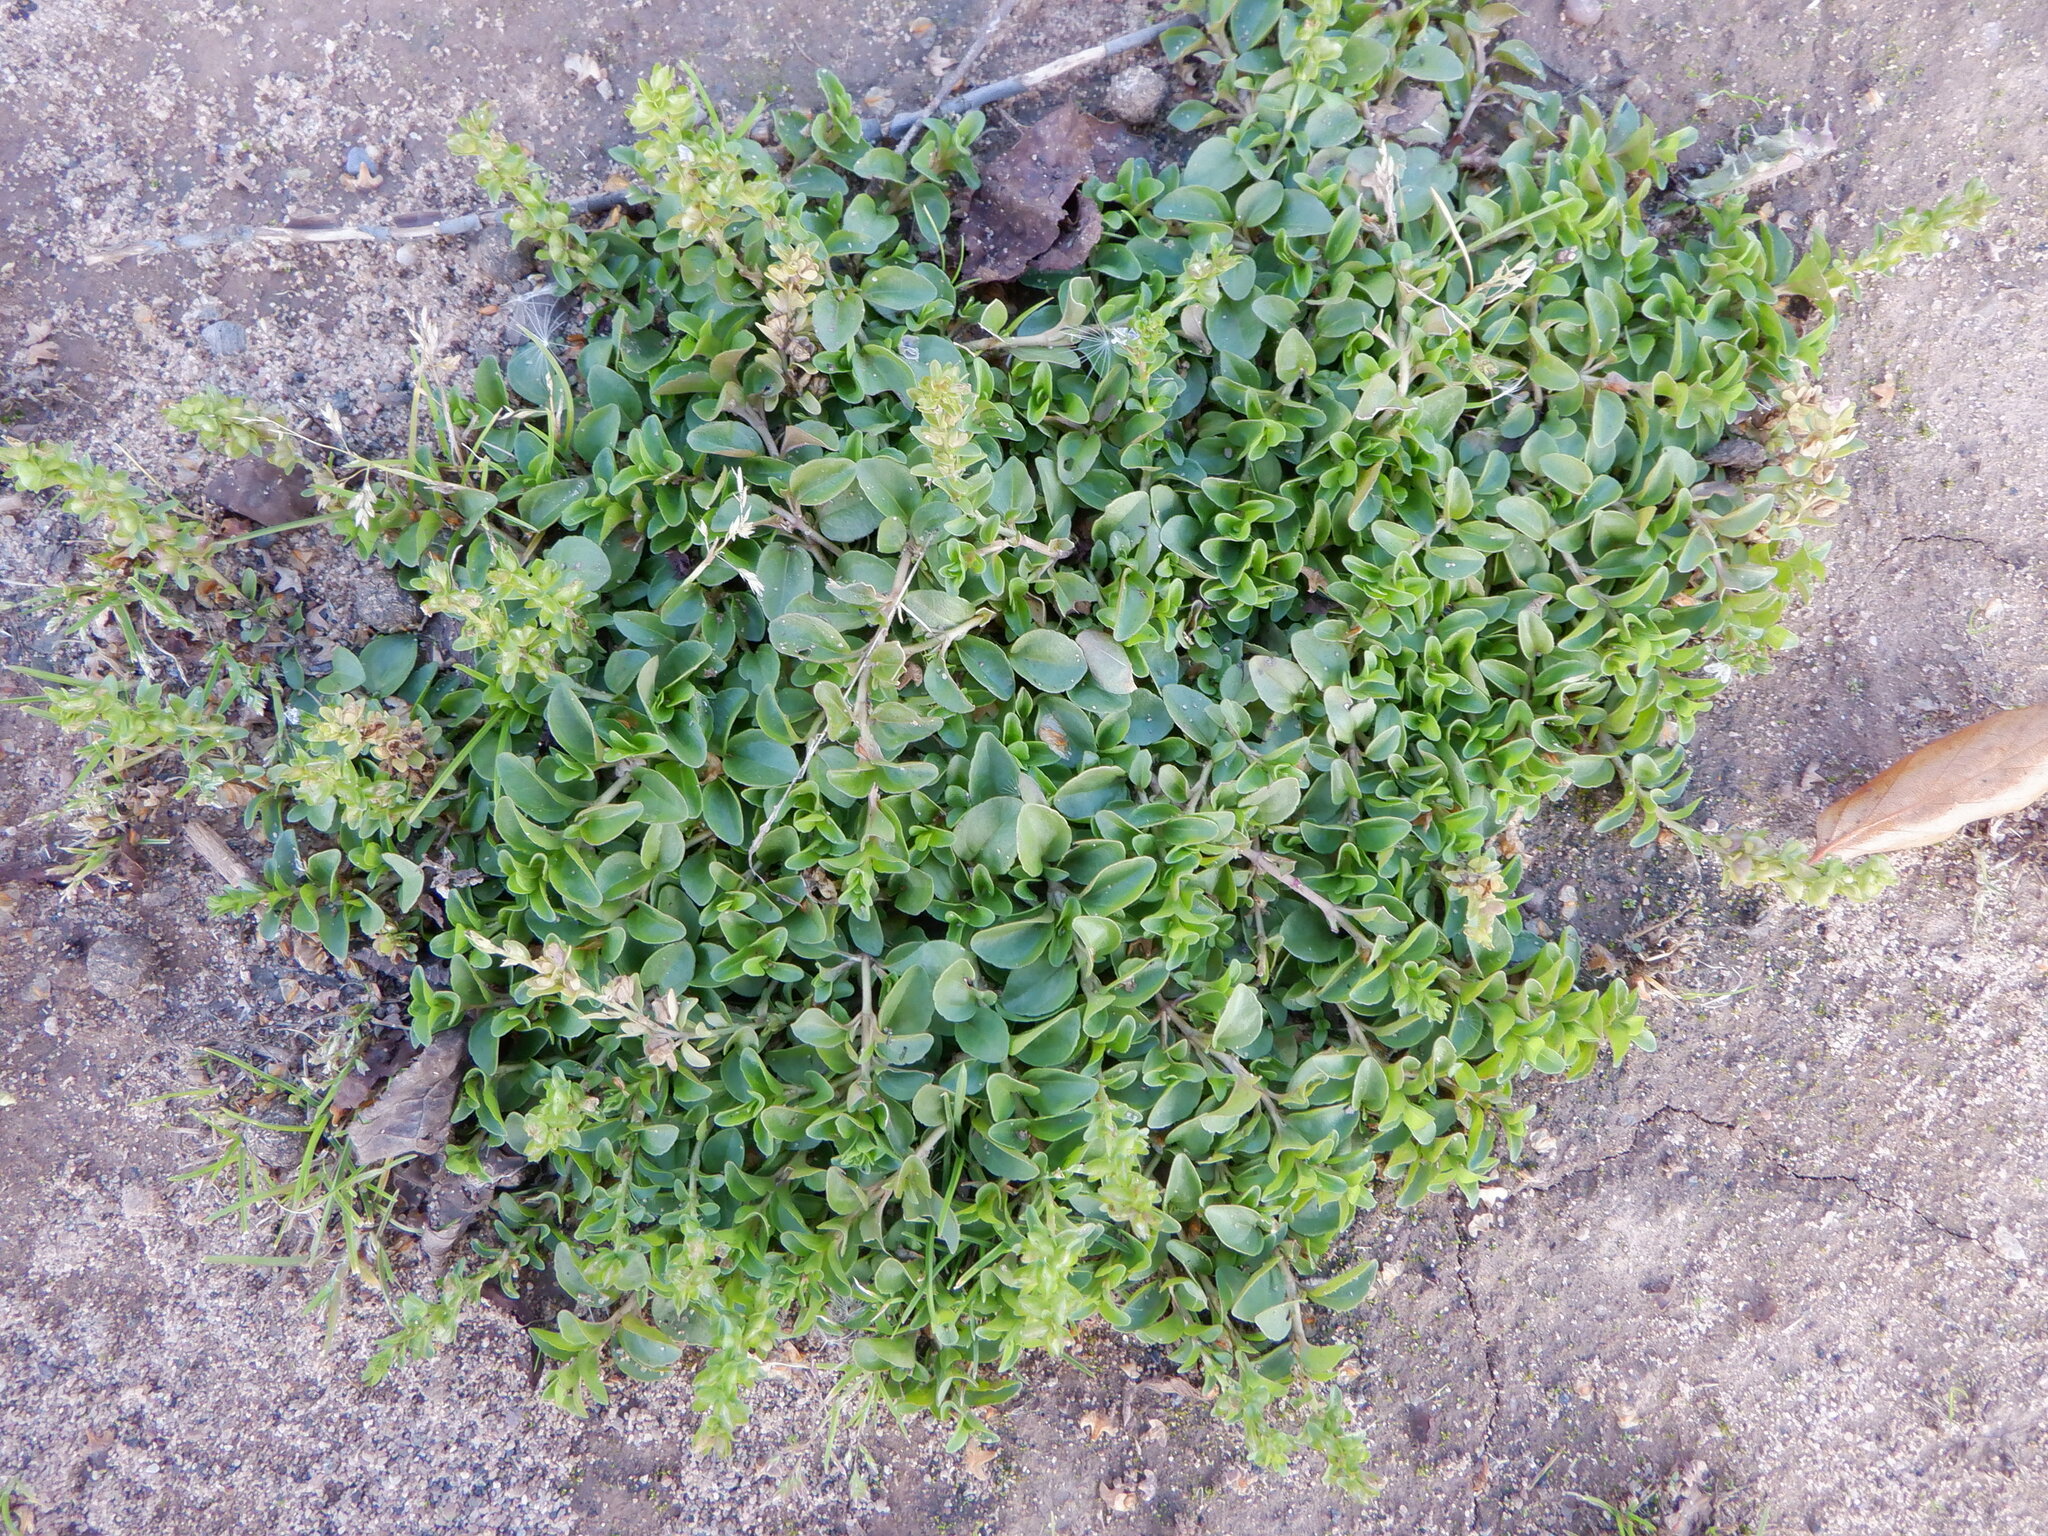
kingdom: Plantae
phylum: Tracheophyta
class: Magnoliopsida
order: Lamiales
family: Plantaginaceae
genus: Veronica
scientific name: Veronica serpyllifolia
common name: Thyme-leaved speedwell
